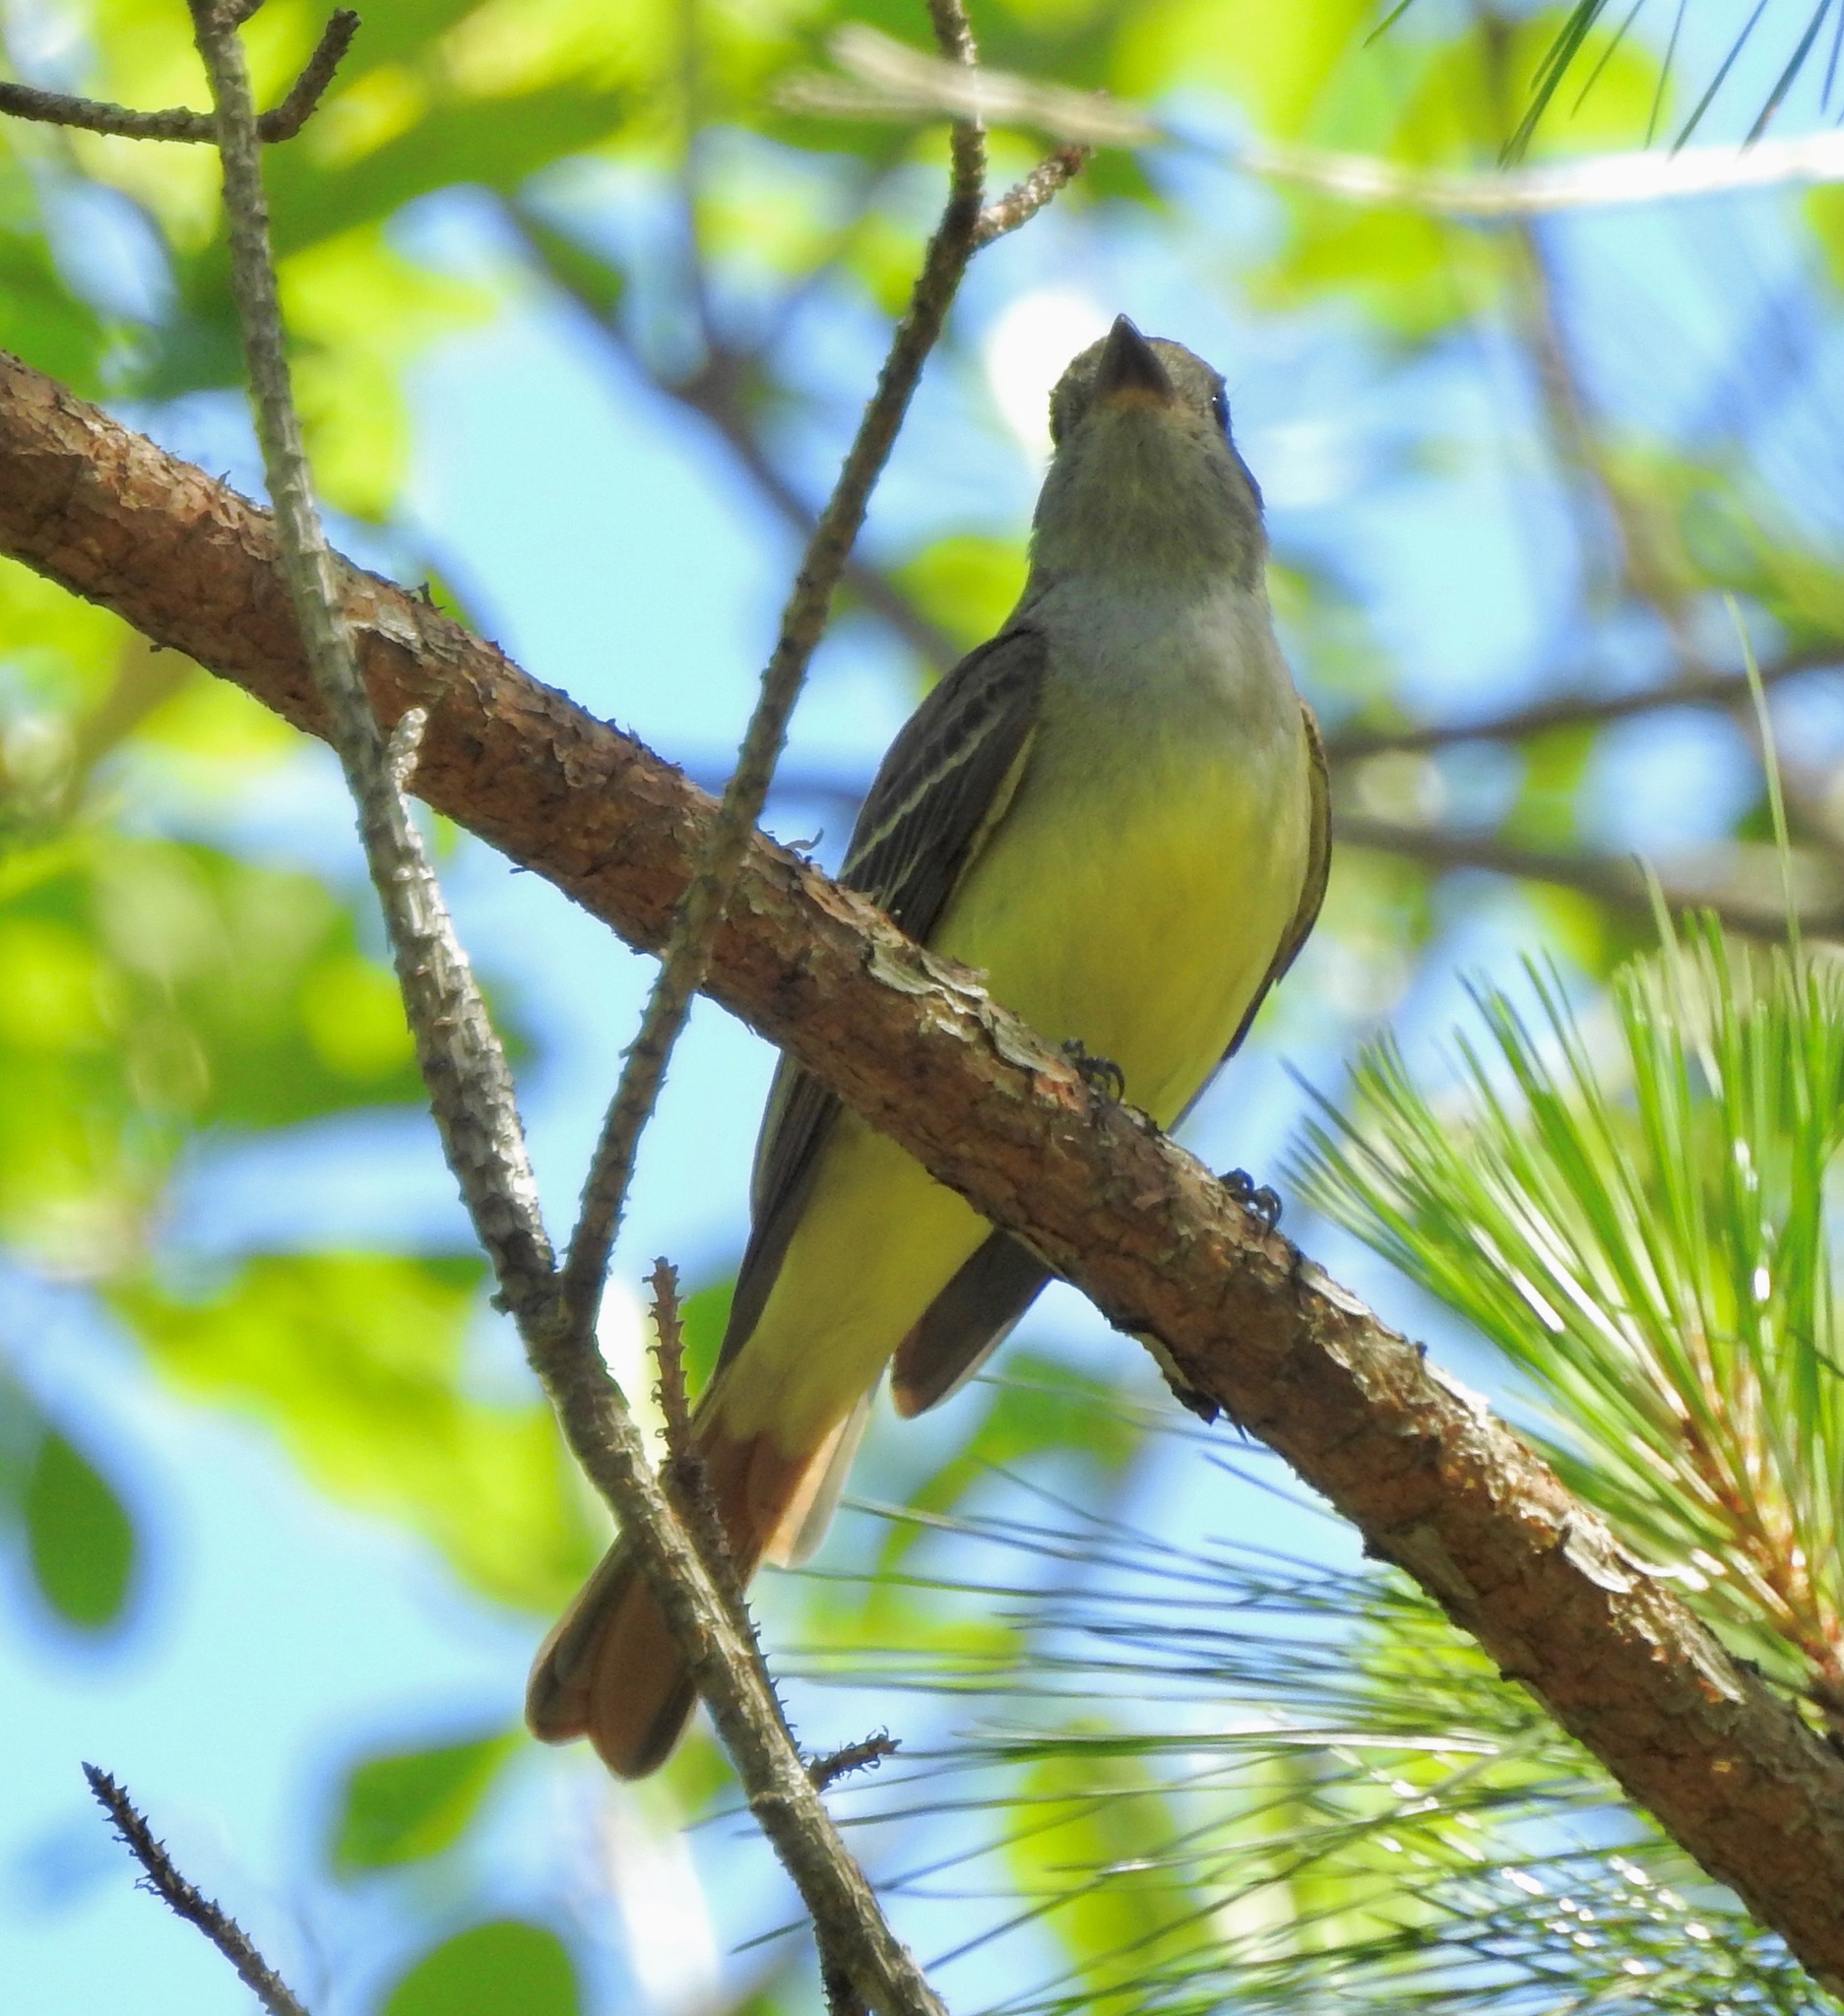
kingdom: Animalia
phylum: Chordata
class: Aves
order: Passeriformes
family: Tyrannidae
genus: Myiarchus
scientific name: Myiarchus crinitus
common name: Great crested flycatcher
